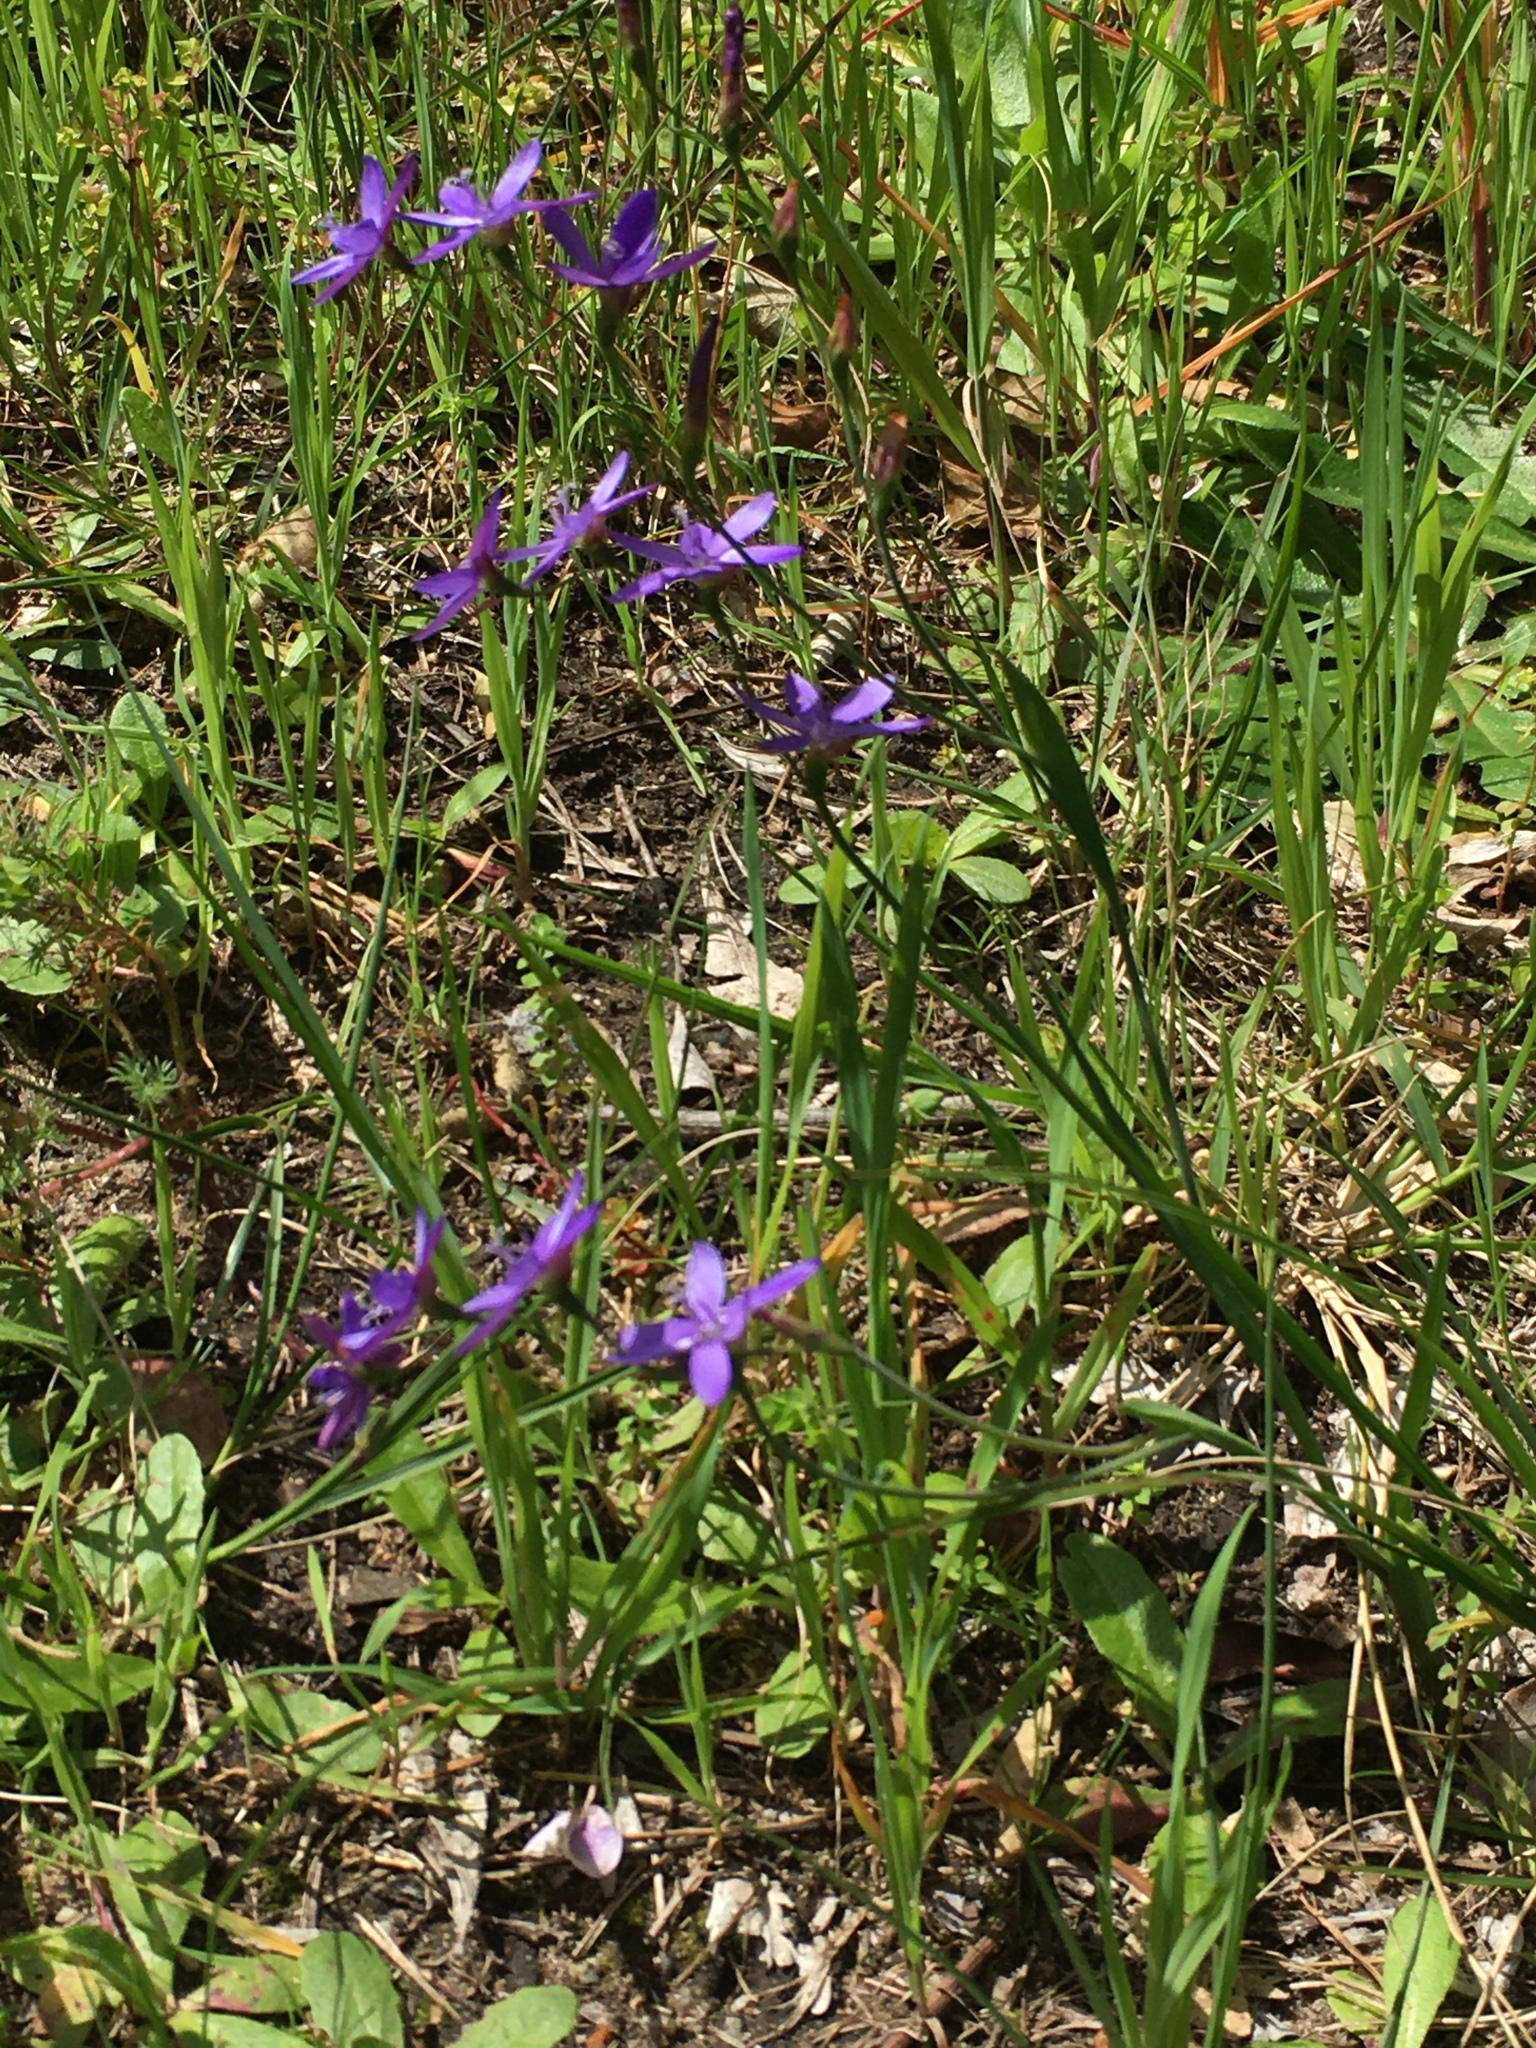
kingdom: Plantae
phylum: Tracheophyta
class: Liliopsida
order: Asparagales
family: Iridaceae
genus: Geissorhiza
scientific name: Geissorhiza aspera
